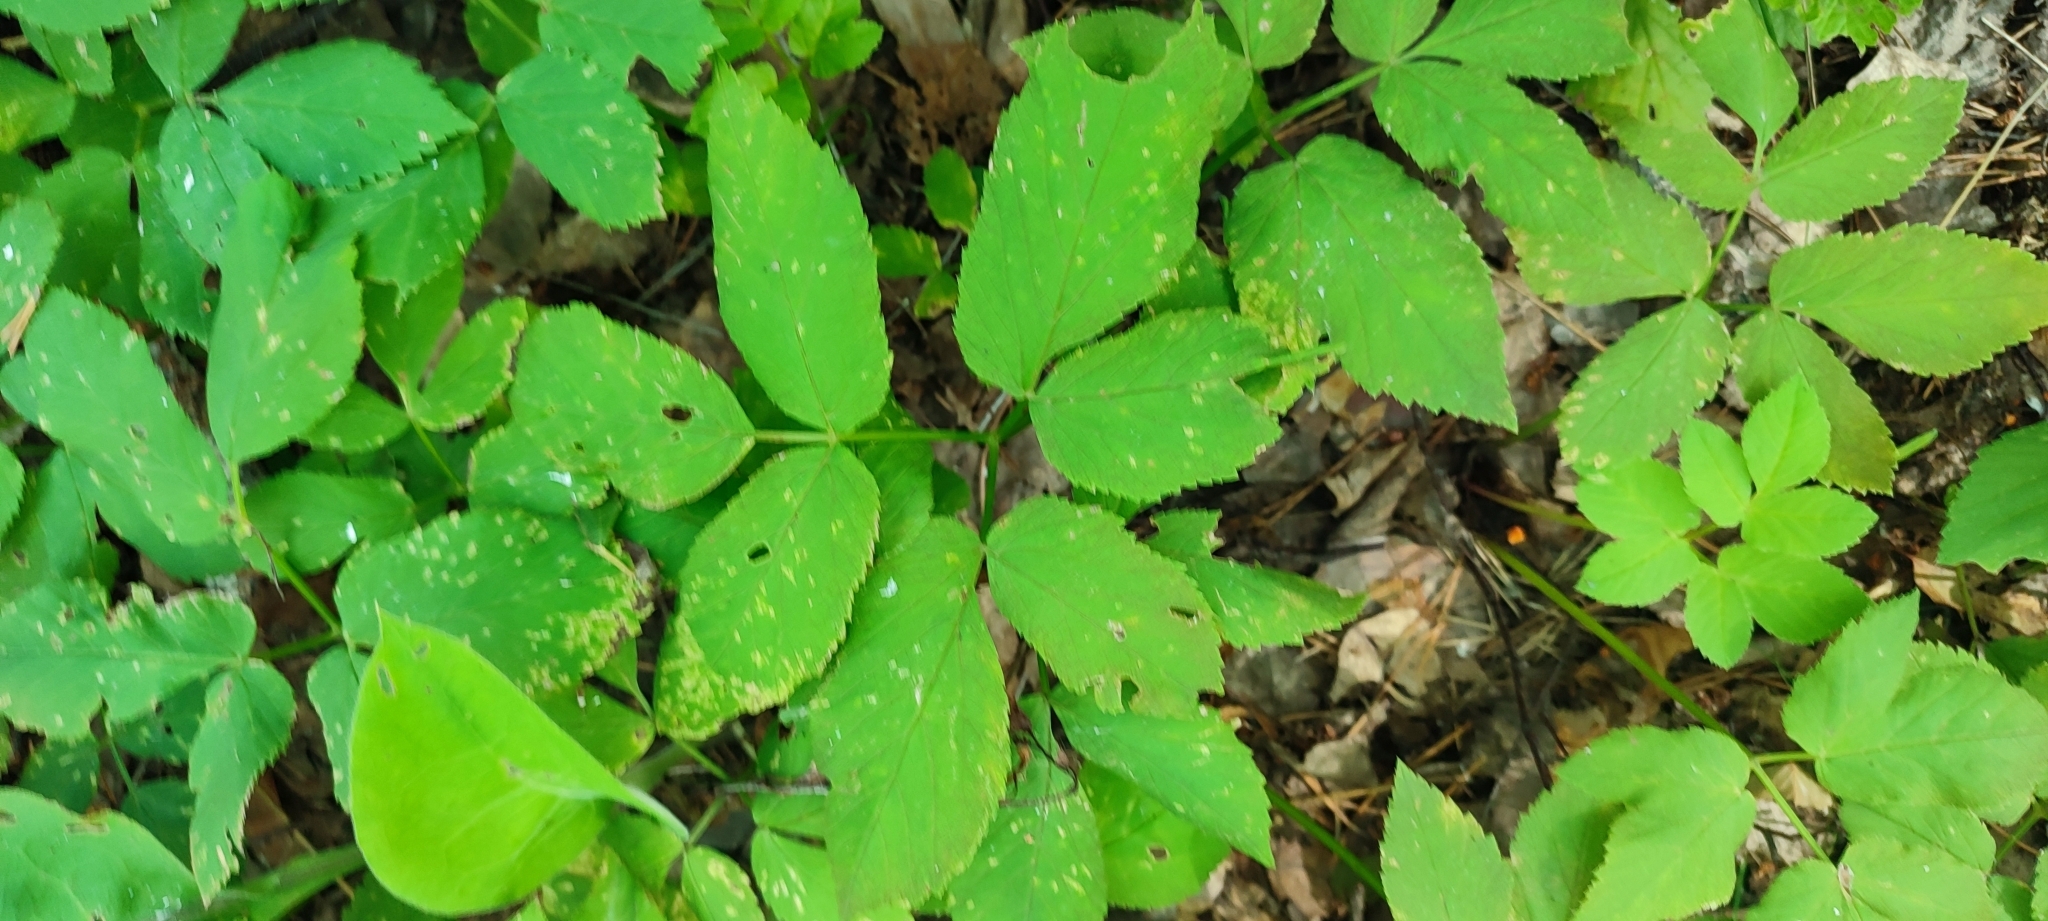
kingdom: Plantae
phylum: Tracheophyta
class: Magnoliopsida
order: Apiales
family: Apiaceae
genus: Aegopodium
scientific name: Aegopodium podagraria
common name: Ground-elder
